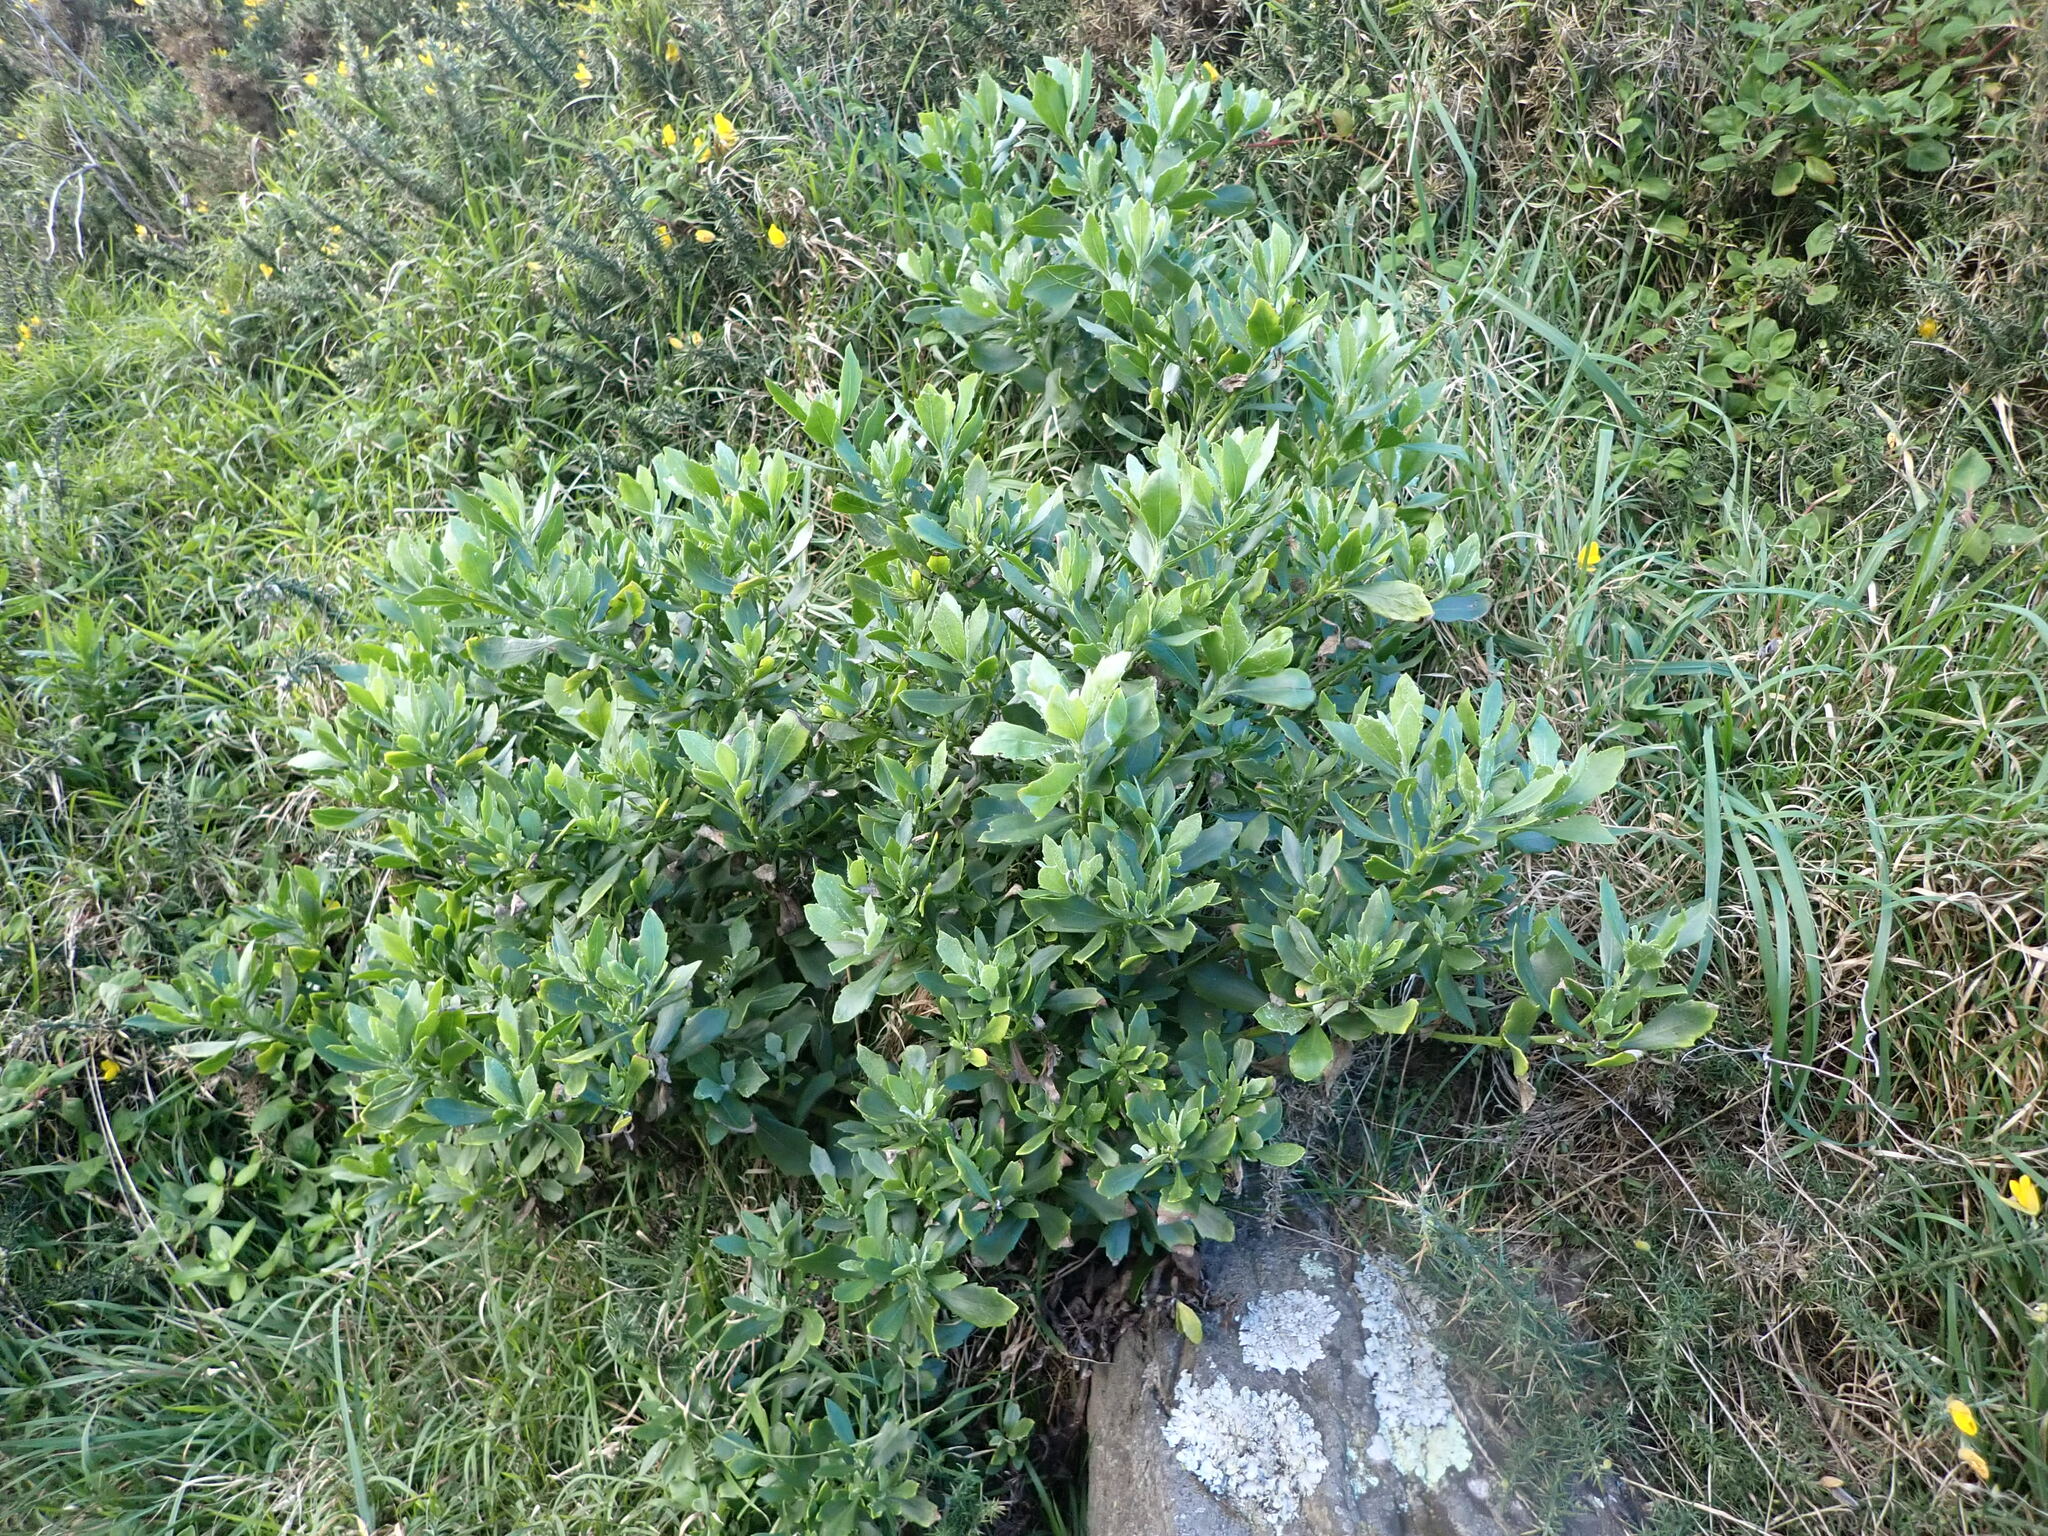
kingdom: Plantae
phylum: Tracheophyta
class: Magnoliopsida
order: Asterales
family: Asteraceae
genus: Osteospermum
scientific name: Osteospermum moniliferum
